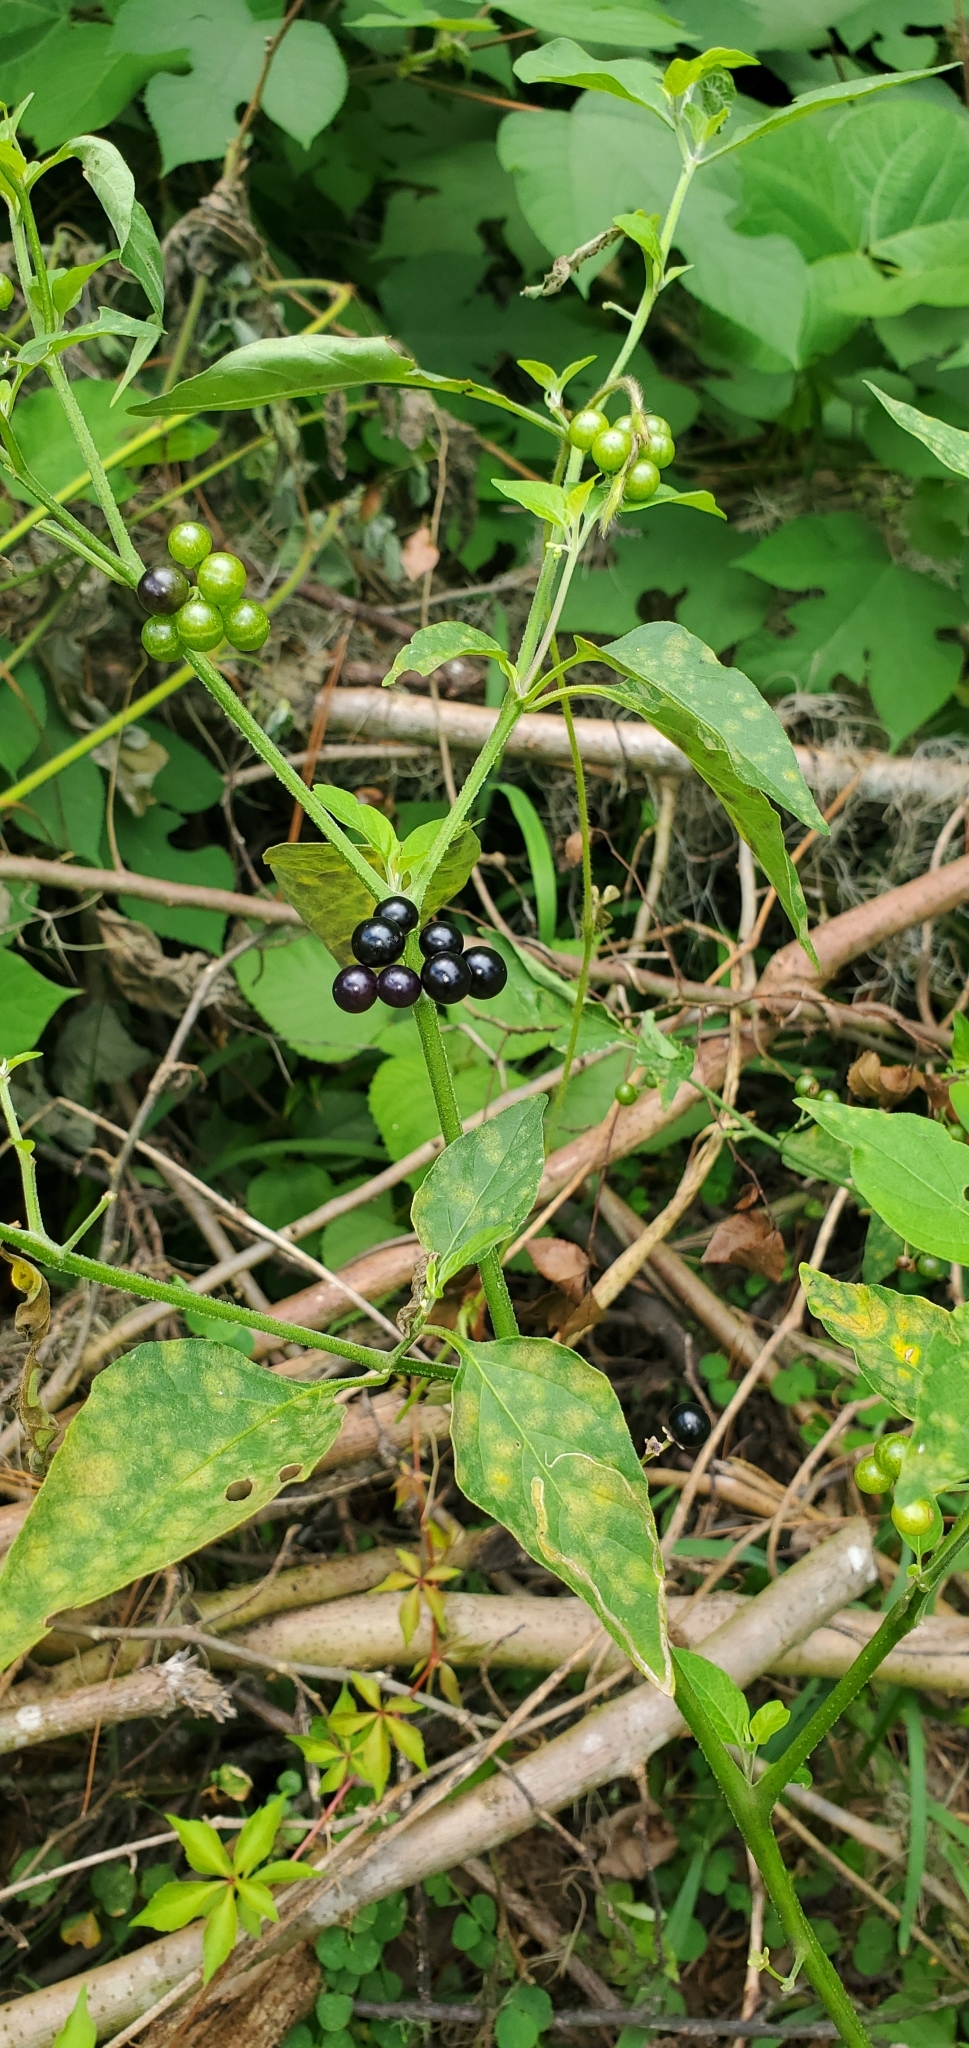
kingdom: Plantae
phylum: Tracheophyta
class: Magnoliopsida
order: Solanales
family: Solanaceae
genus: Solanum
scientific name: Solanum americanum
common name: American black nightshade
